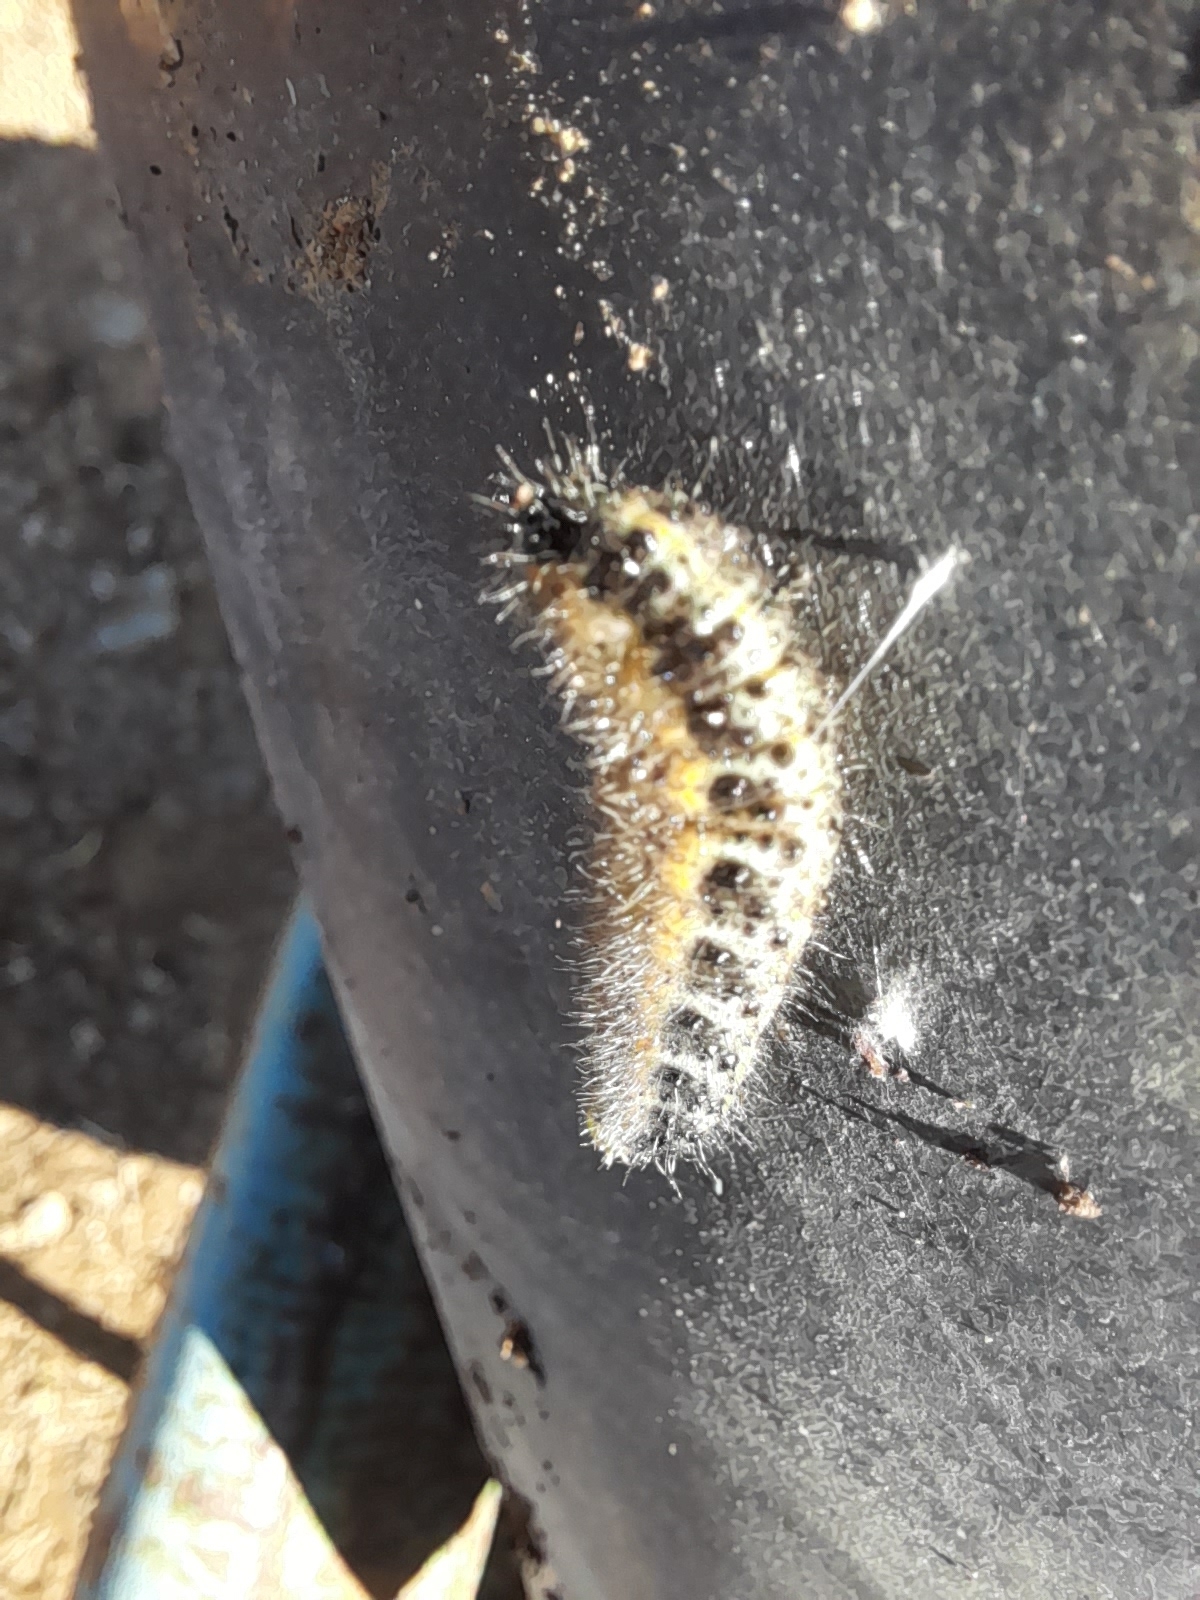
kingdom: Animalia
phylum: Arthropoda
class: Insecta
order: Lepidoptera
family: Pieridae
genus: Pieris
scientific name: Pieris brassicae
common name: Large white
